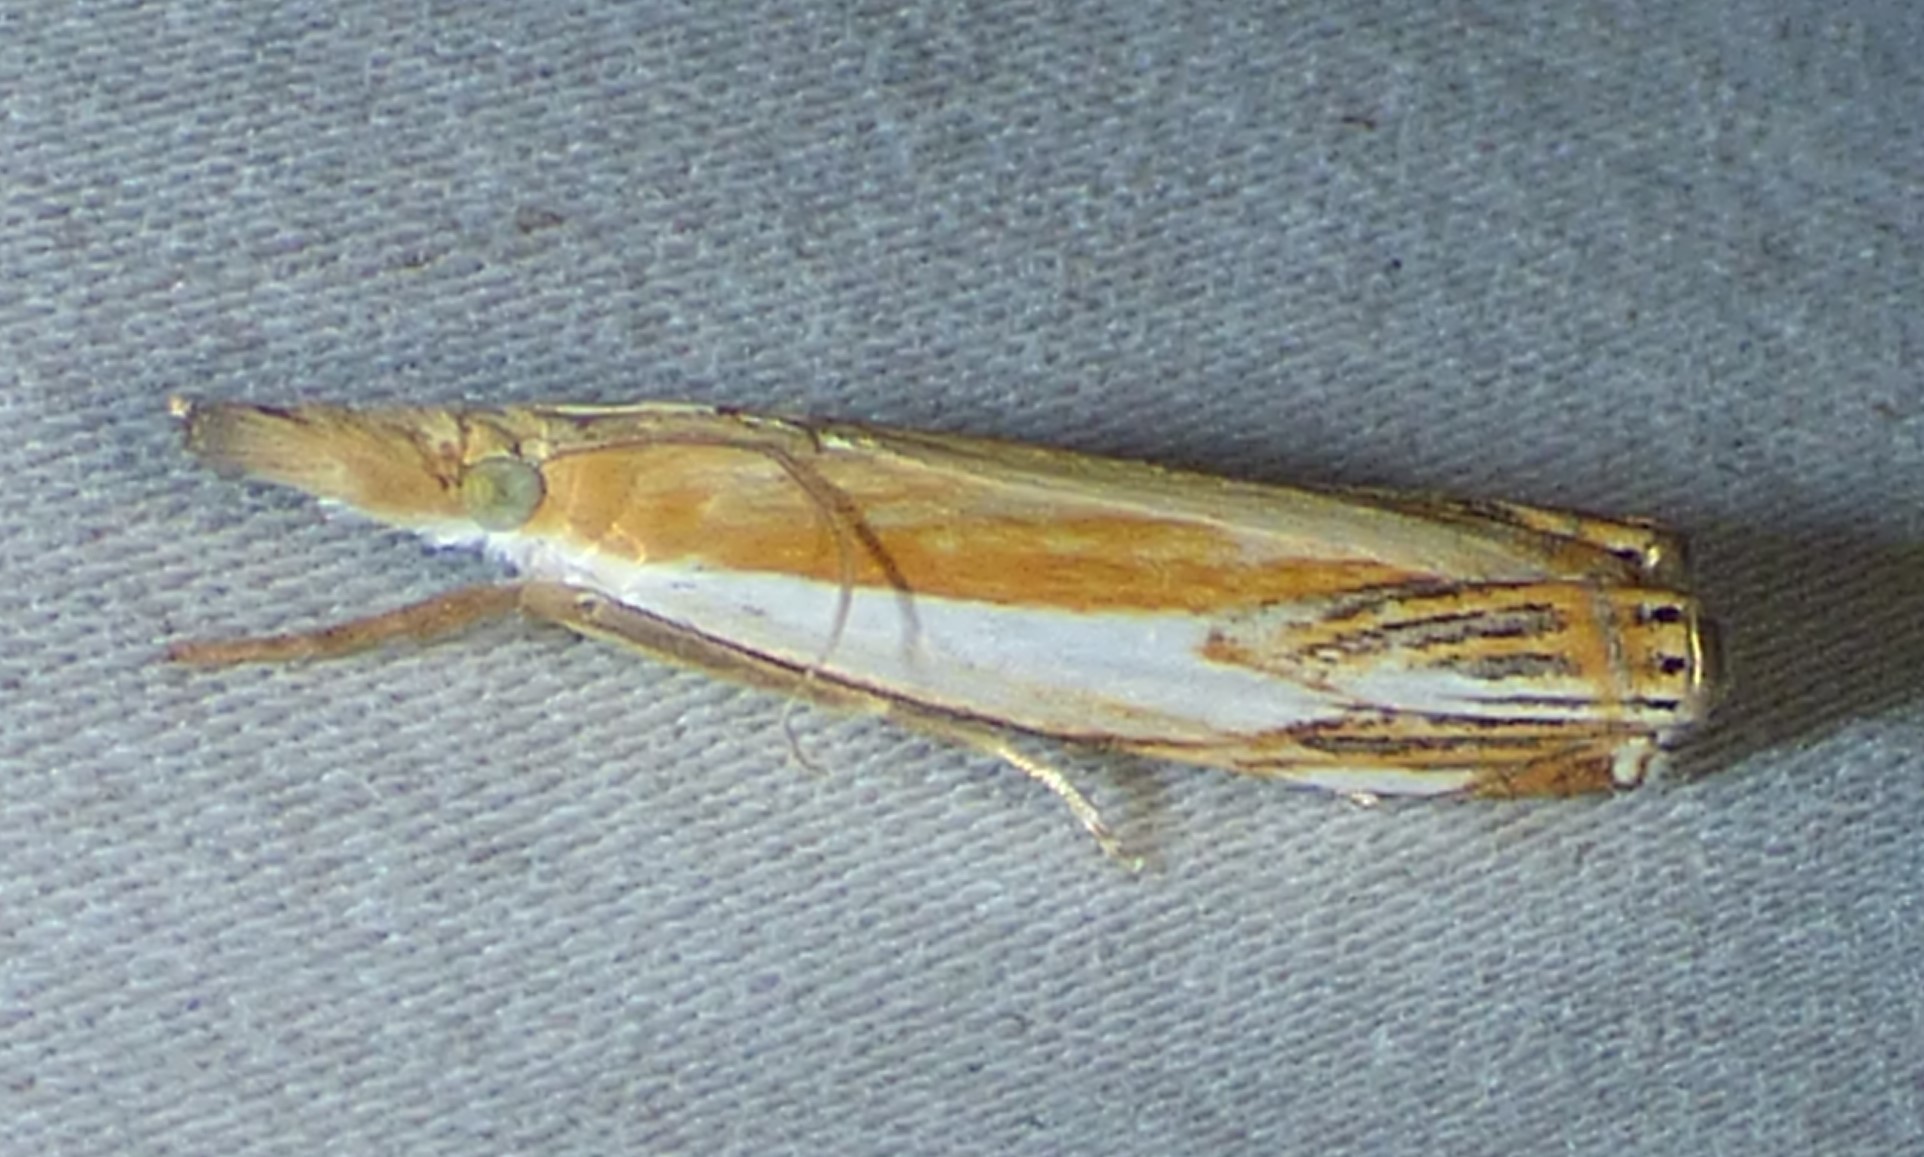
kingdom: Animalia
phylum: Arthropoda
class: Insecta
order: Lepidoptera
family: Crambidae
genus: Crambus
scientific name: Crambus agitatellus
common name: Double-banded grass-veneer
